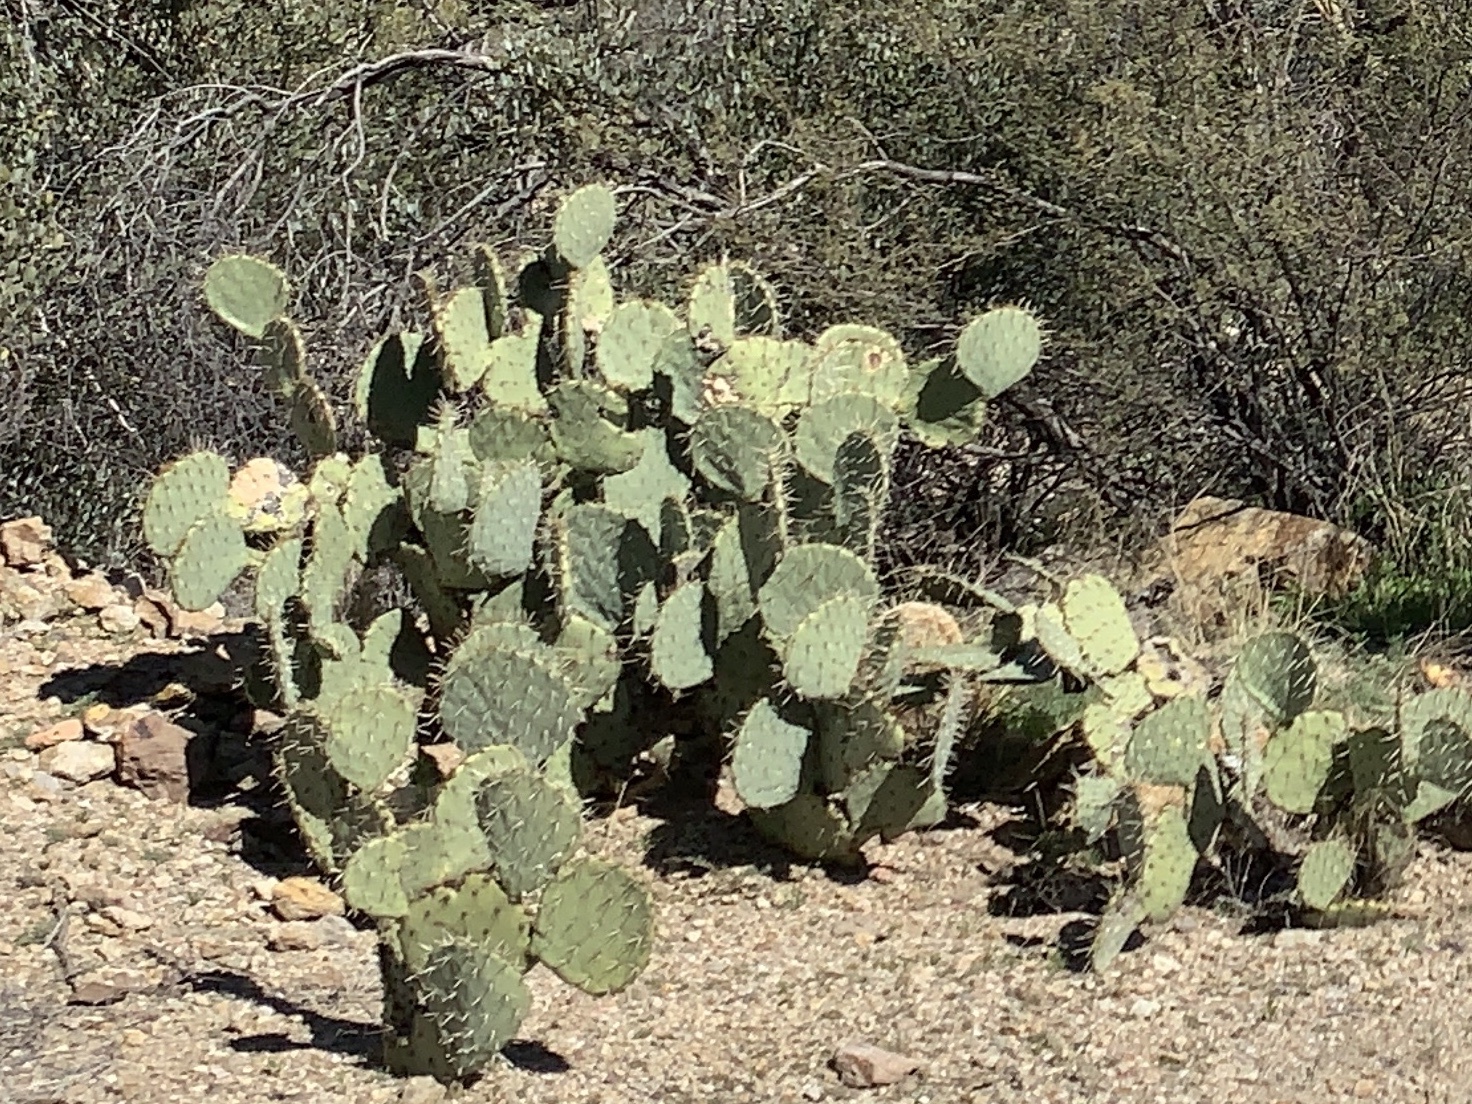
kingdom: Plantae
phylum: Tracheophyta
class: Magnoliopsida
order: Caryophyllales
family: Cactaceae
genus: Opuntia
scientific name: Opuntia engelmannii
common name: Cactus-apple
